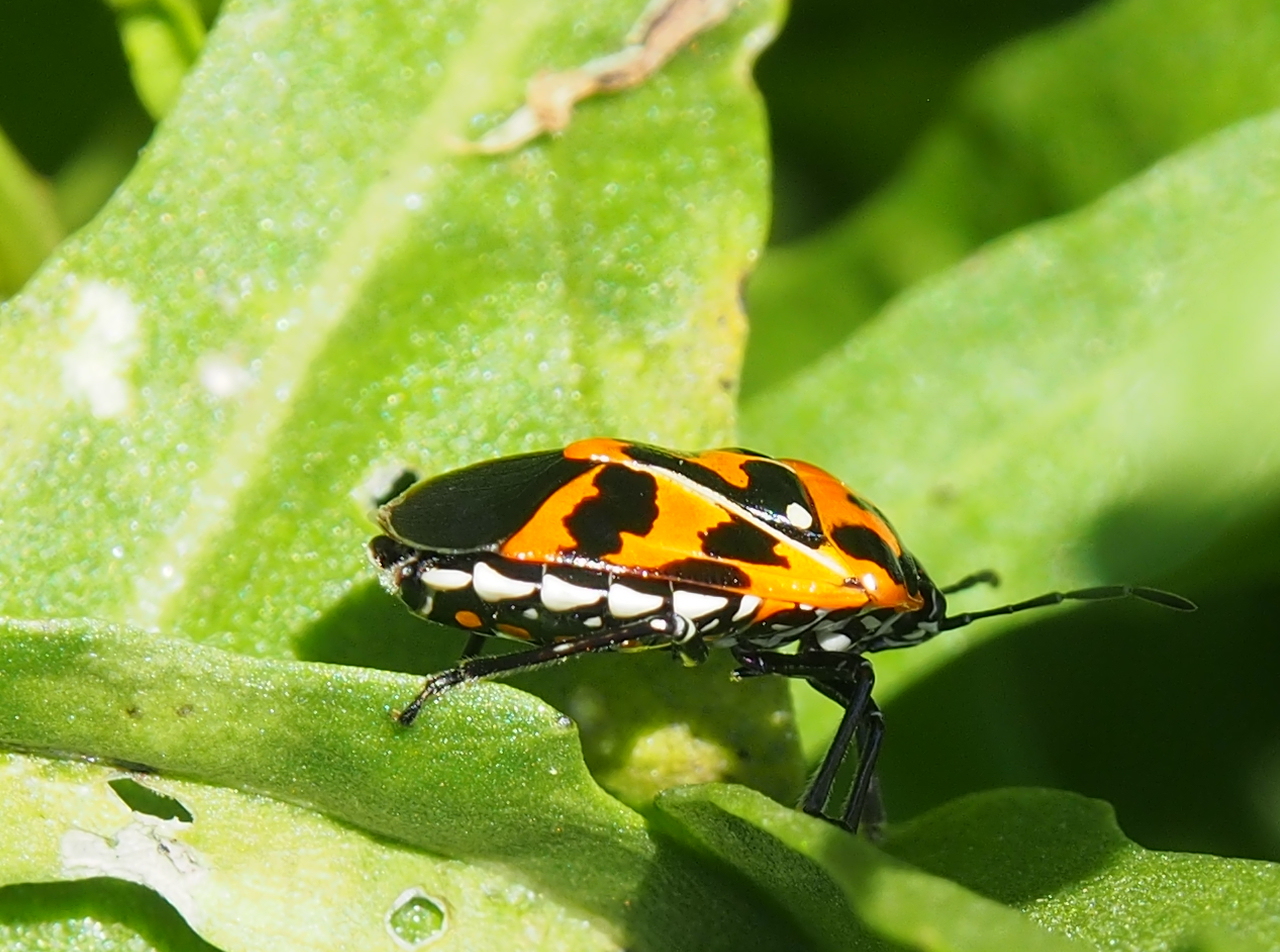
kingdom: Animalia
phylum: Arthropoda
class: Insecta
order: Hemiptera
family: Pentatomidae
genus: Murgantia
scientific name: Murgantia histrionica
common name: Harlequin bug
